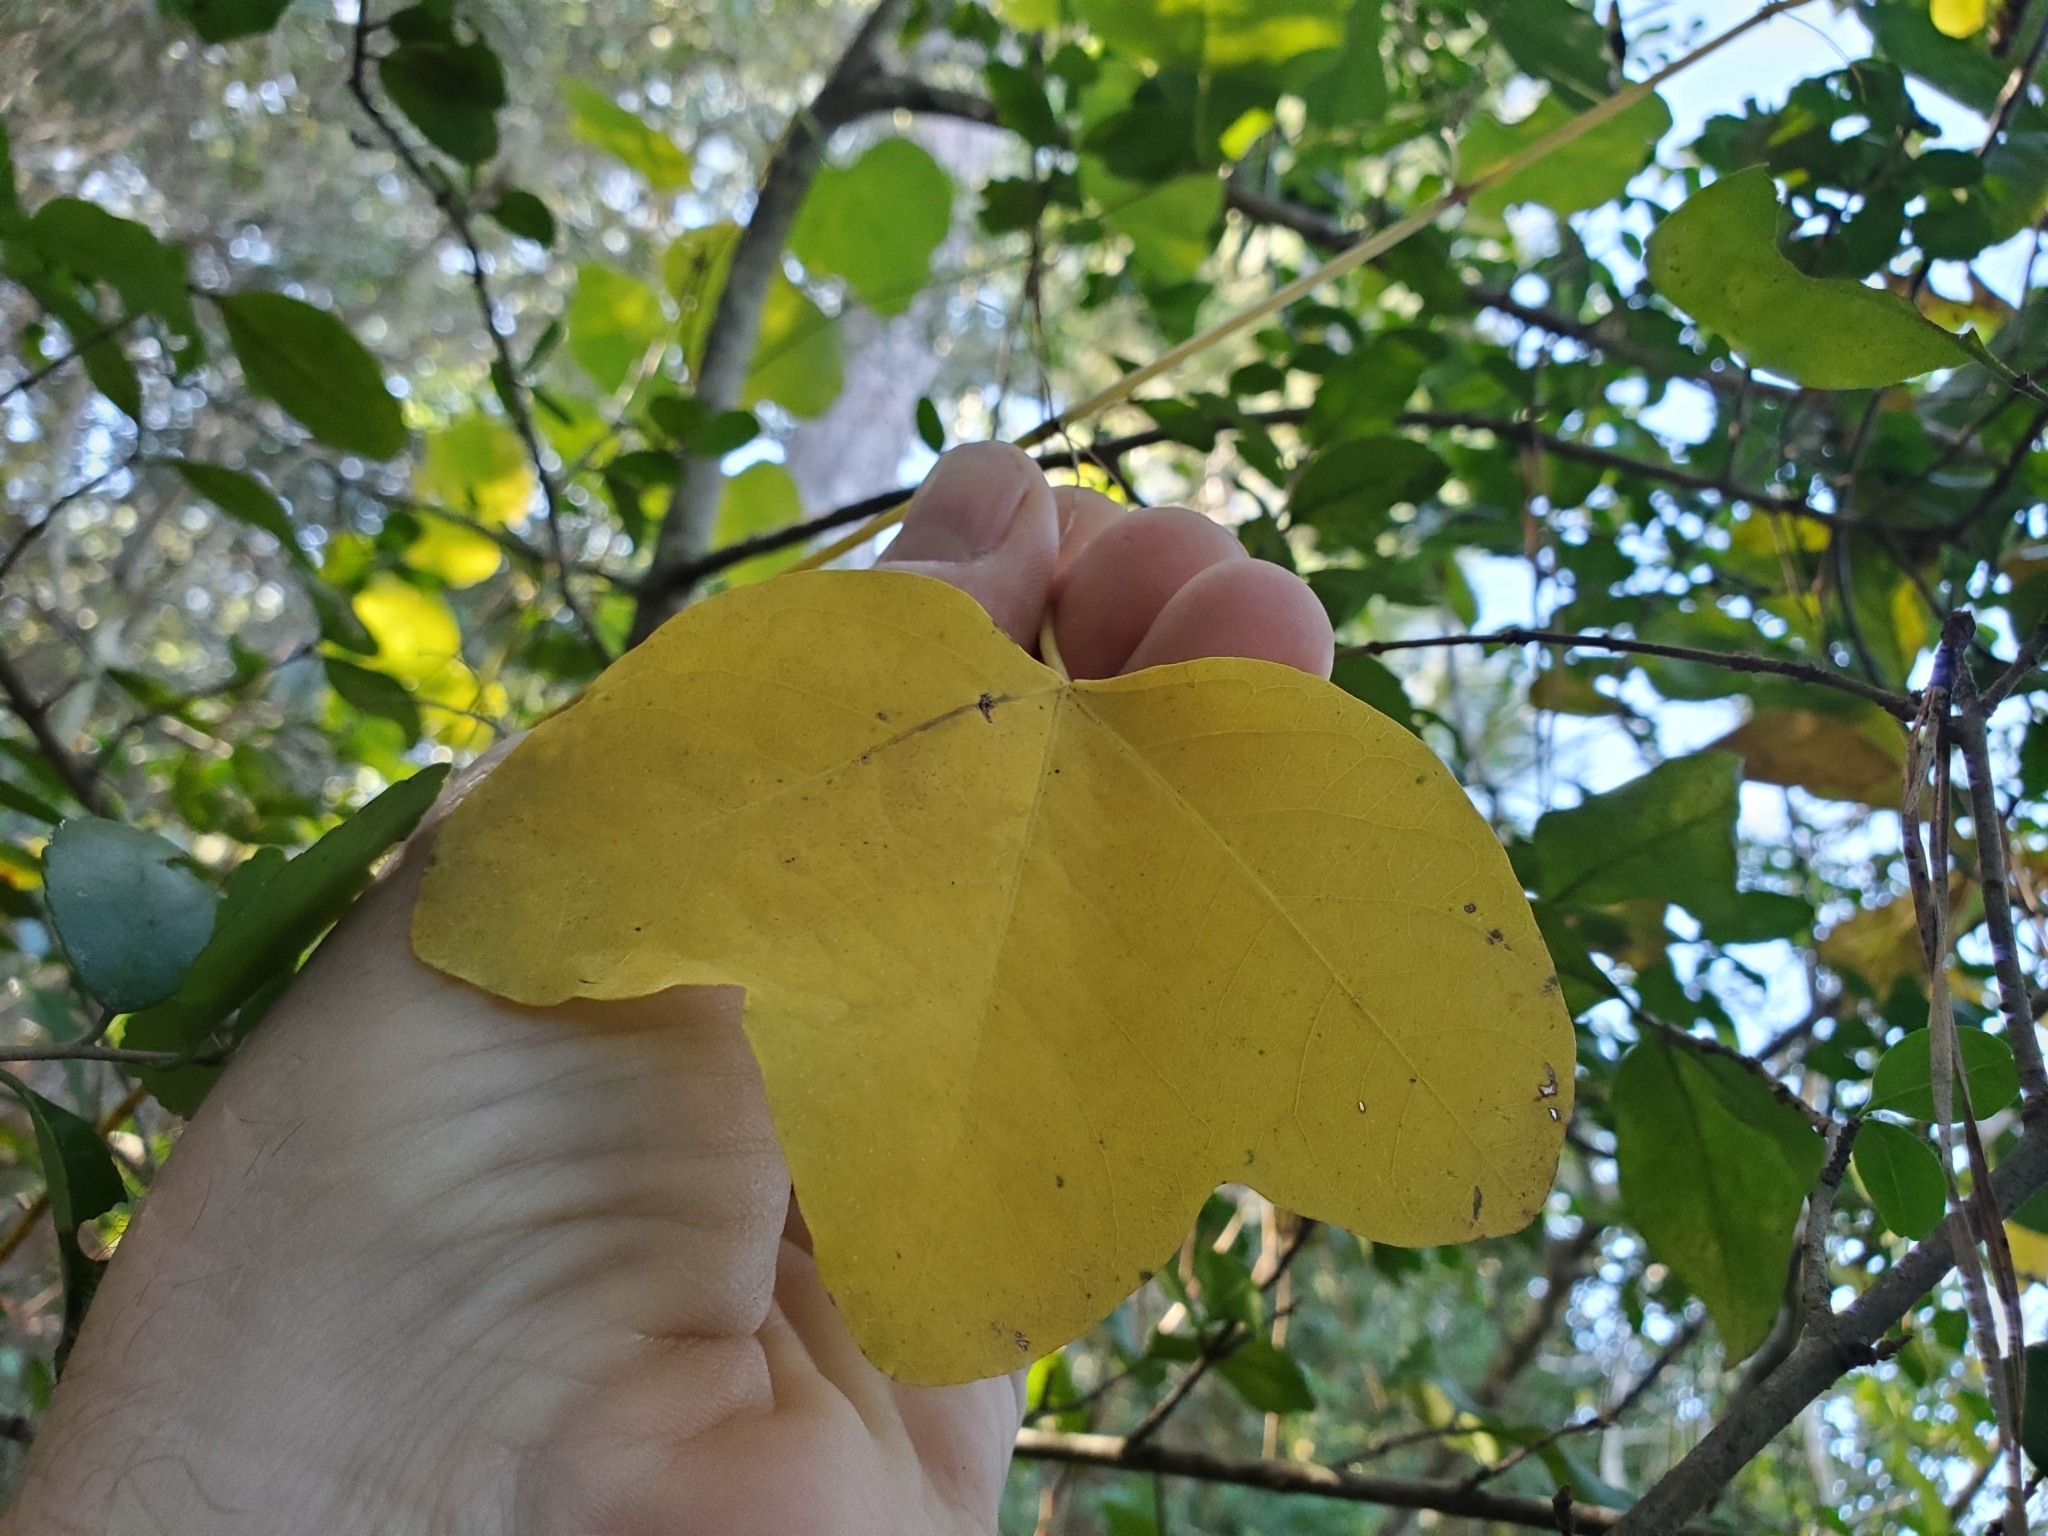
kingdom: Plantae
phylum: Tracheophyta
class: Magnoliopsida
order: Malpighiales
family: Passifloraceae
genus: Passiflora
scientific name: Passiflora lutea
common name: Yellow passionflower
